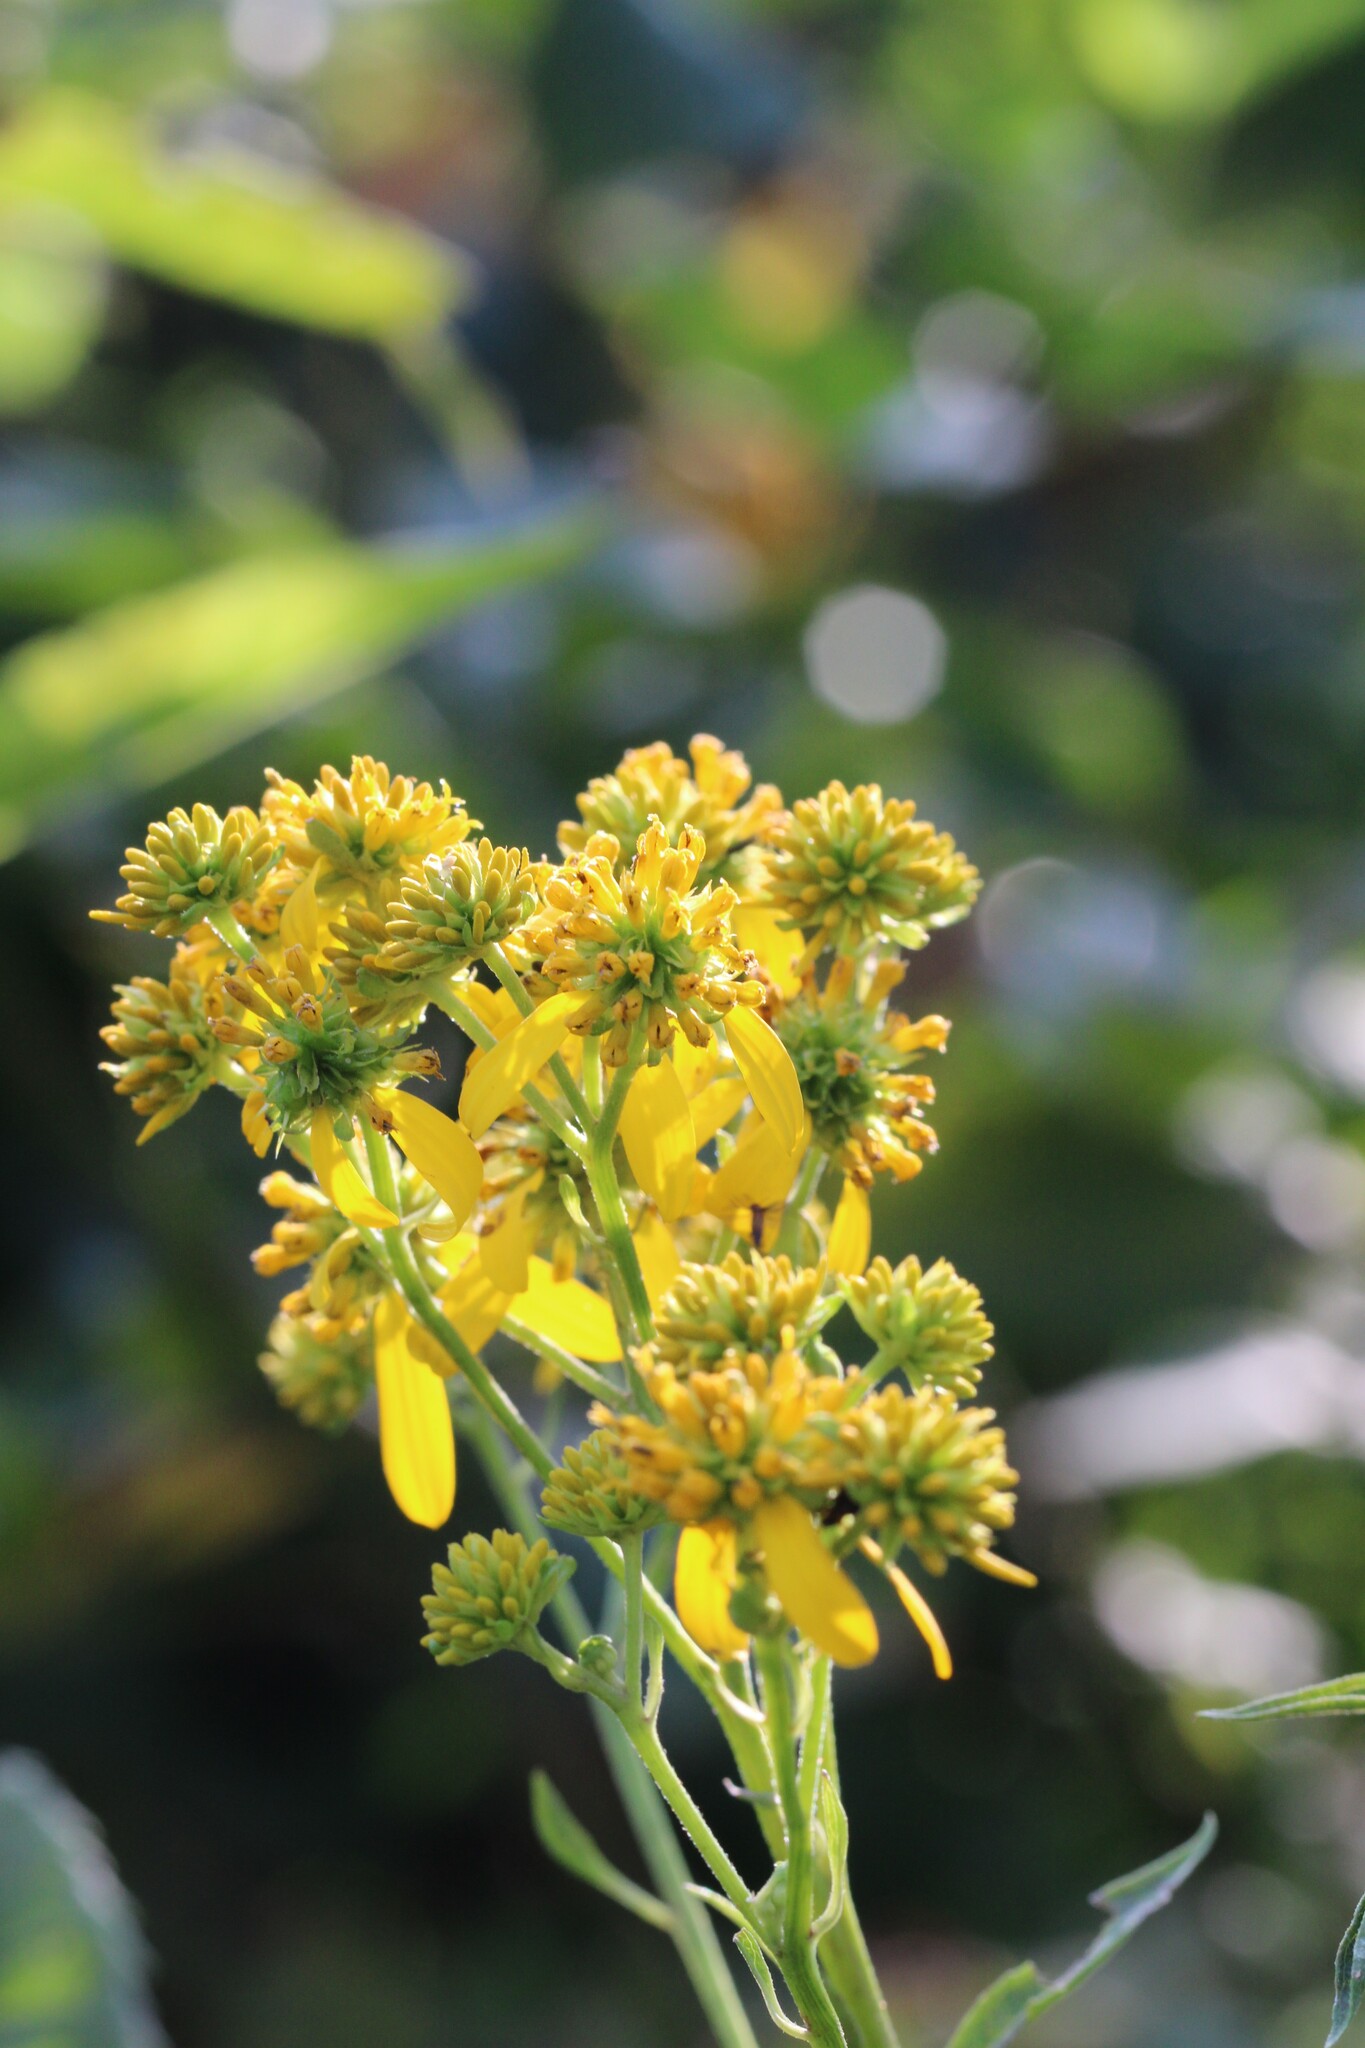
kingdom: Plantae
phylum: Tracheophyta
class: Magnoliopsida
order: Asterales
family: Asteraceae
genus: Verbesina
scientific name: Verbesina alternifolia
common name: Wingstem
